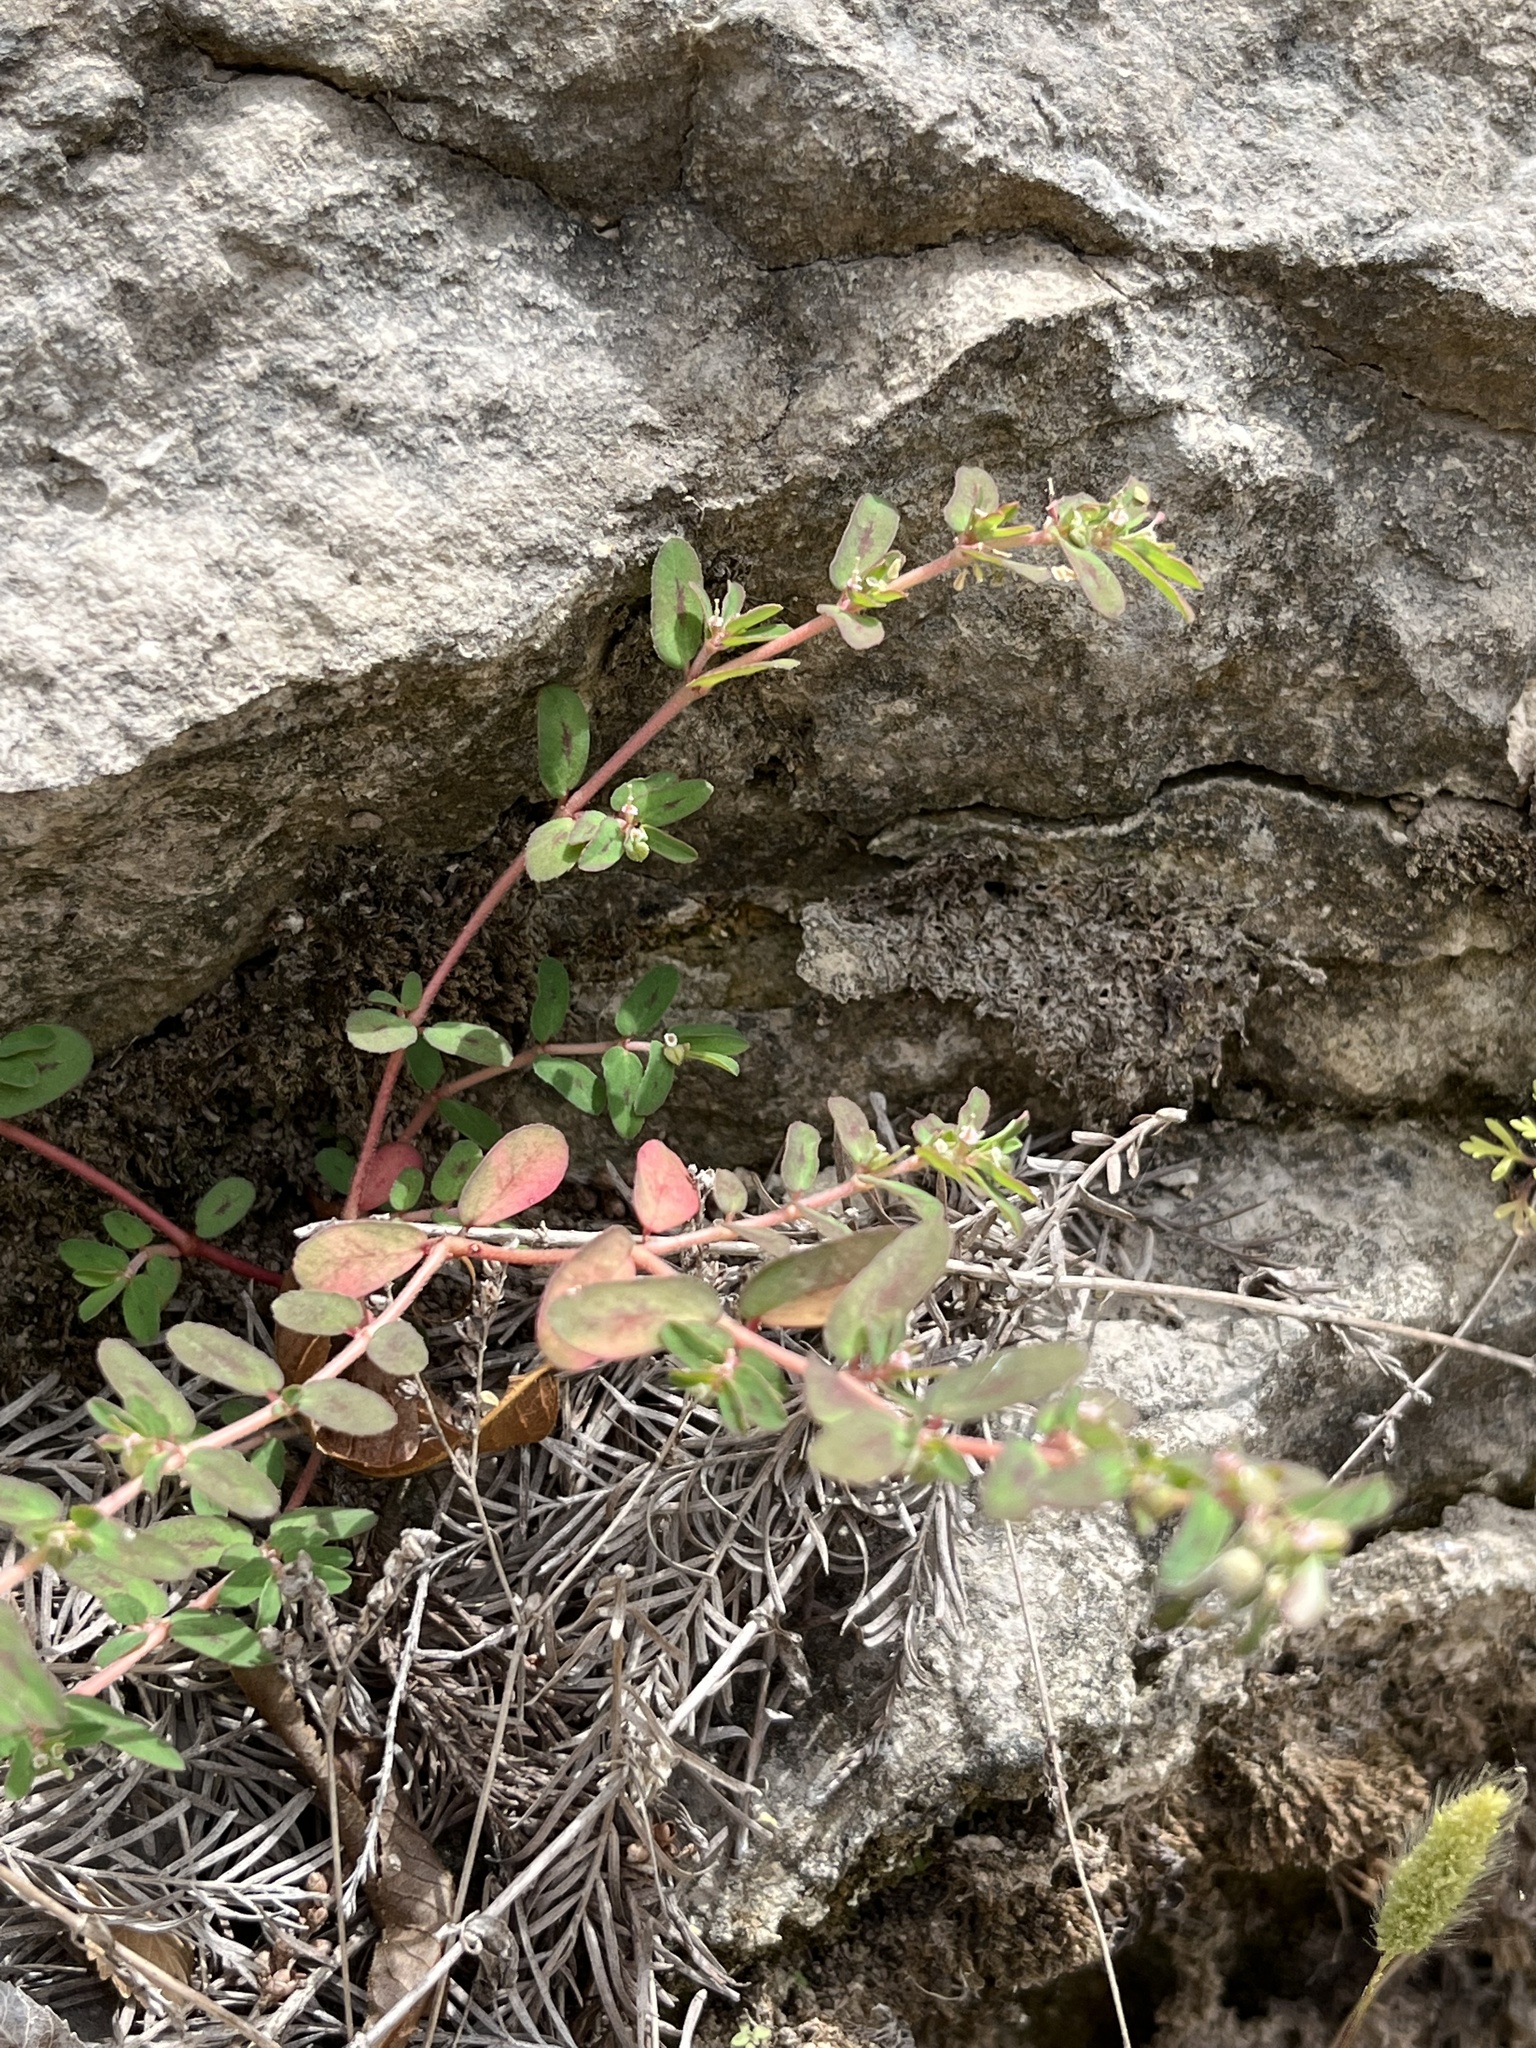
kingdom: Plantae
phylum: Tracheophyta
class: Magnoliopsida
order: Malpighiales
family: Euphorbiaceae
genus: Euphorbia
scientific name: Euphorbia maculata
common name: Spotted spurge
